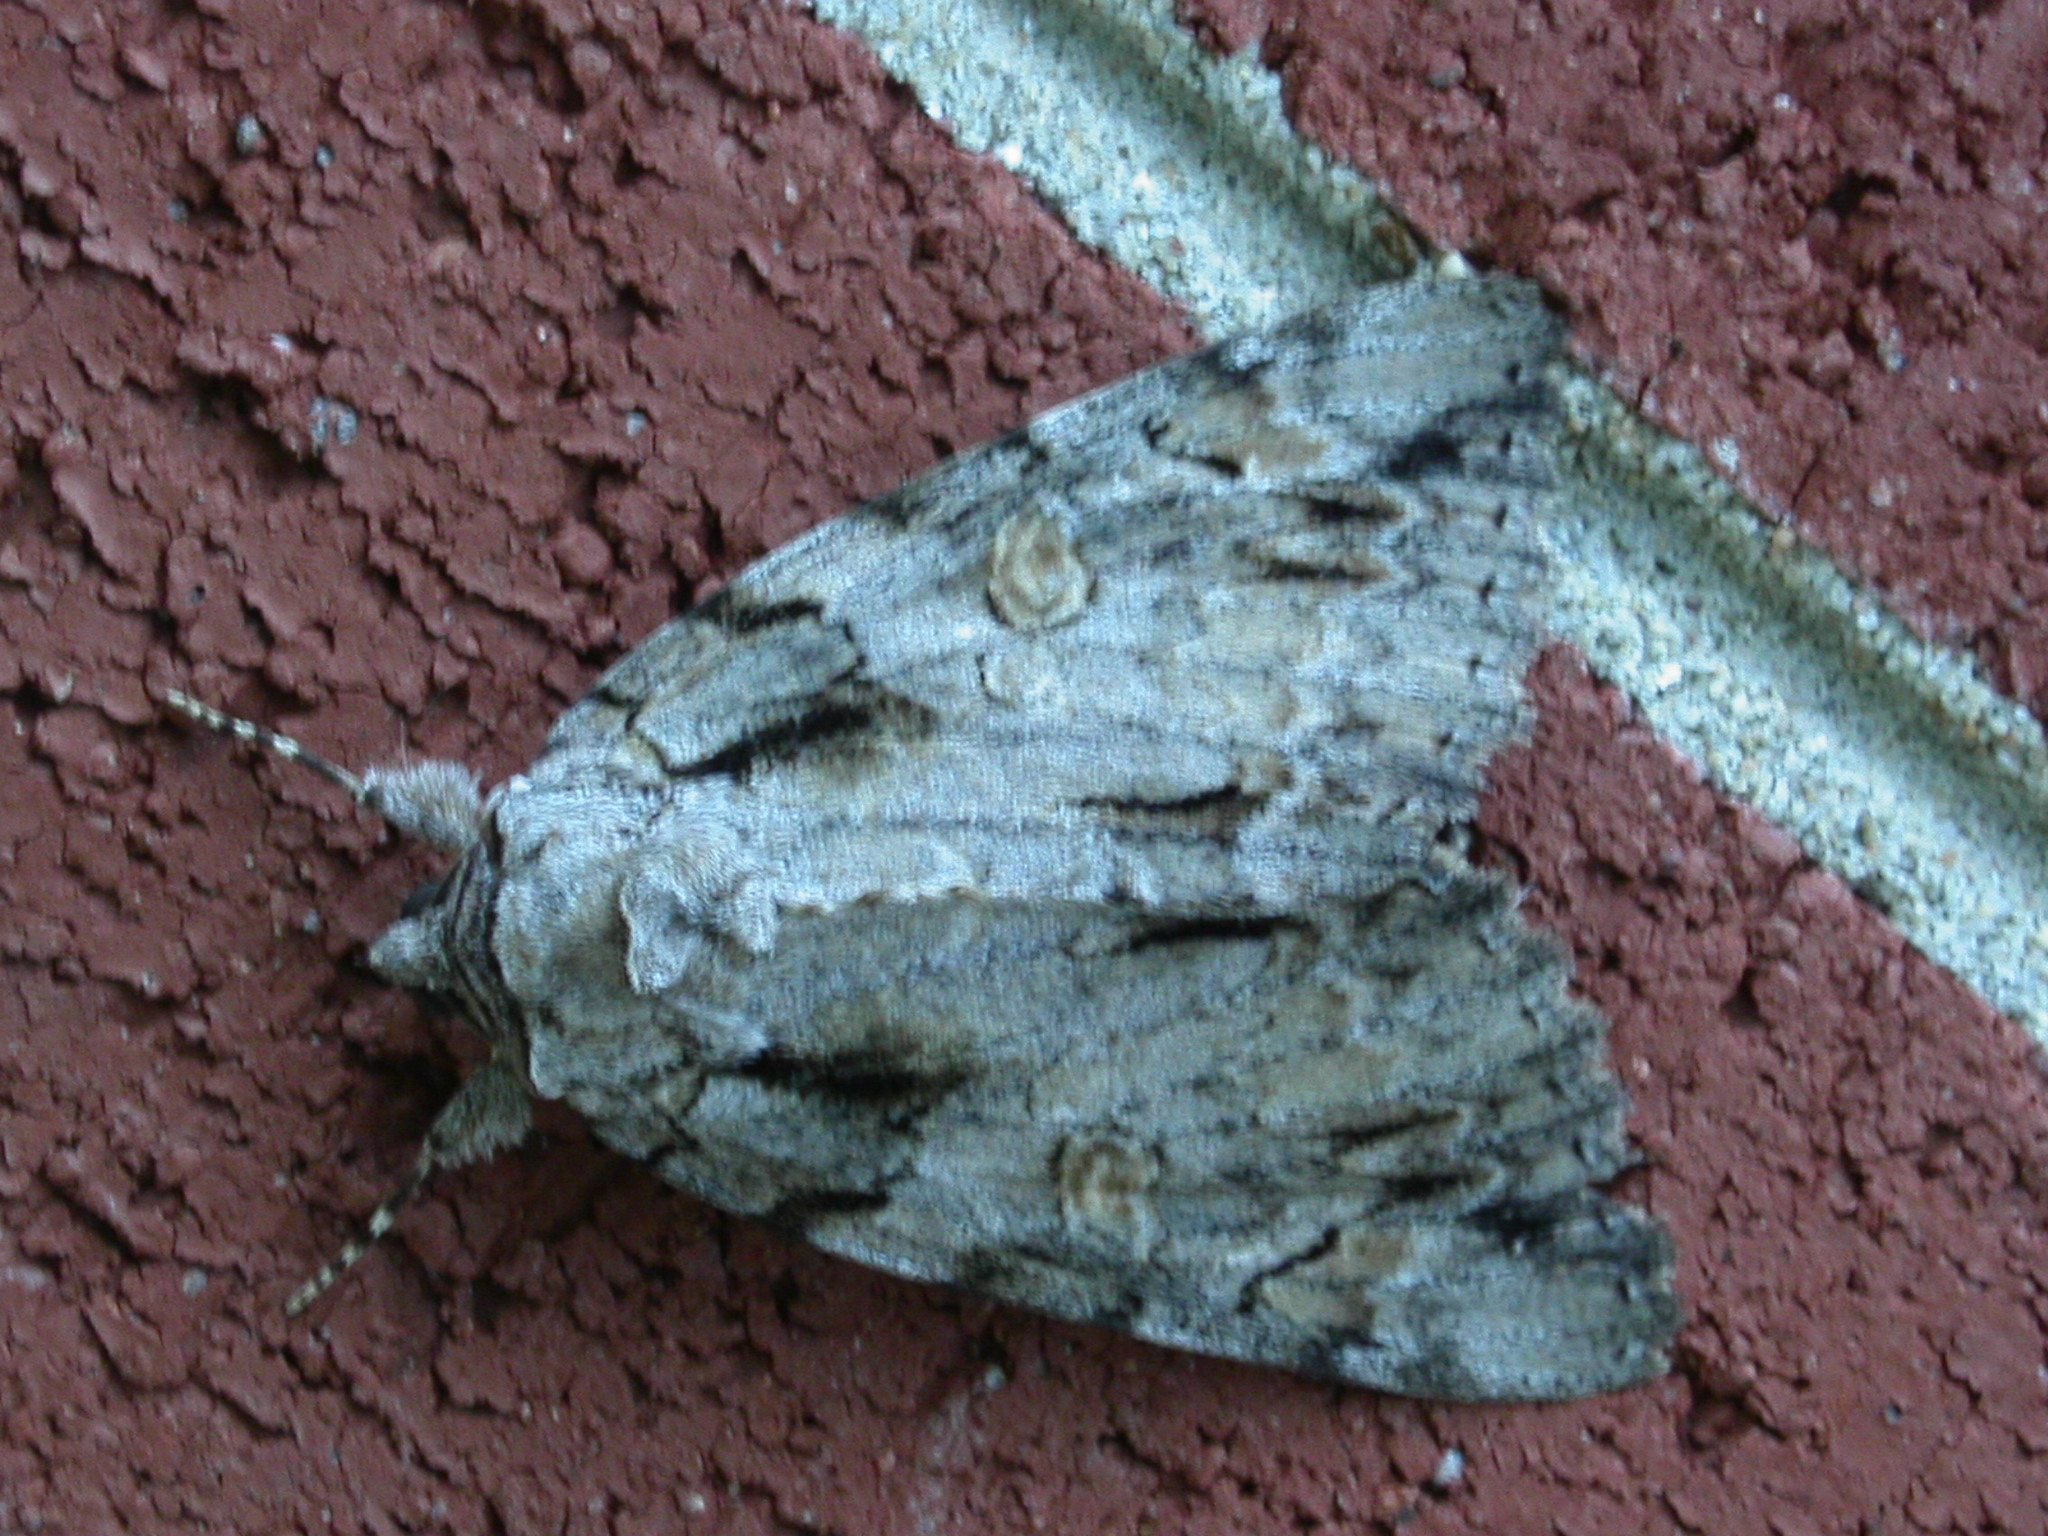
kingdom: Animalia
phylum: Arthropoda
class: Insecta
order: Lepidoptera
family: Erebidae
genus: Catocala
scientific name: Catocala neogama
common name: Bride underwing
